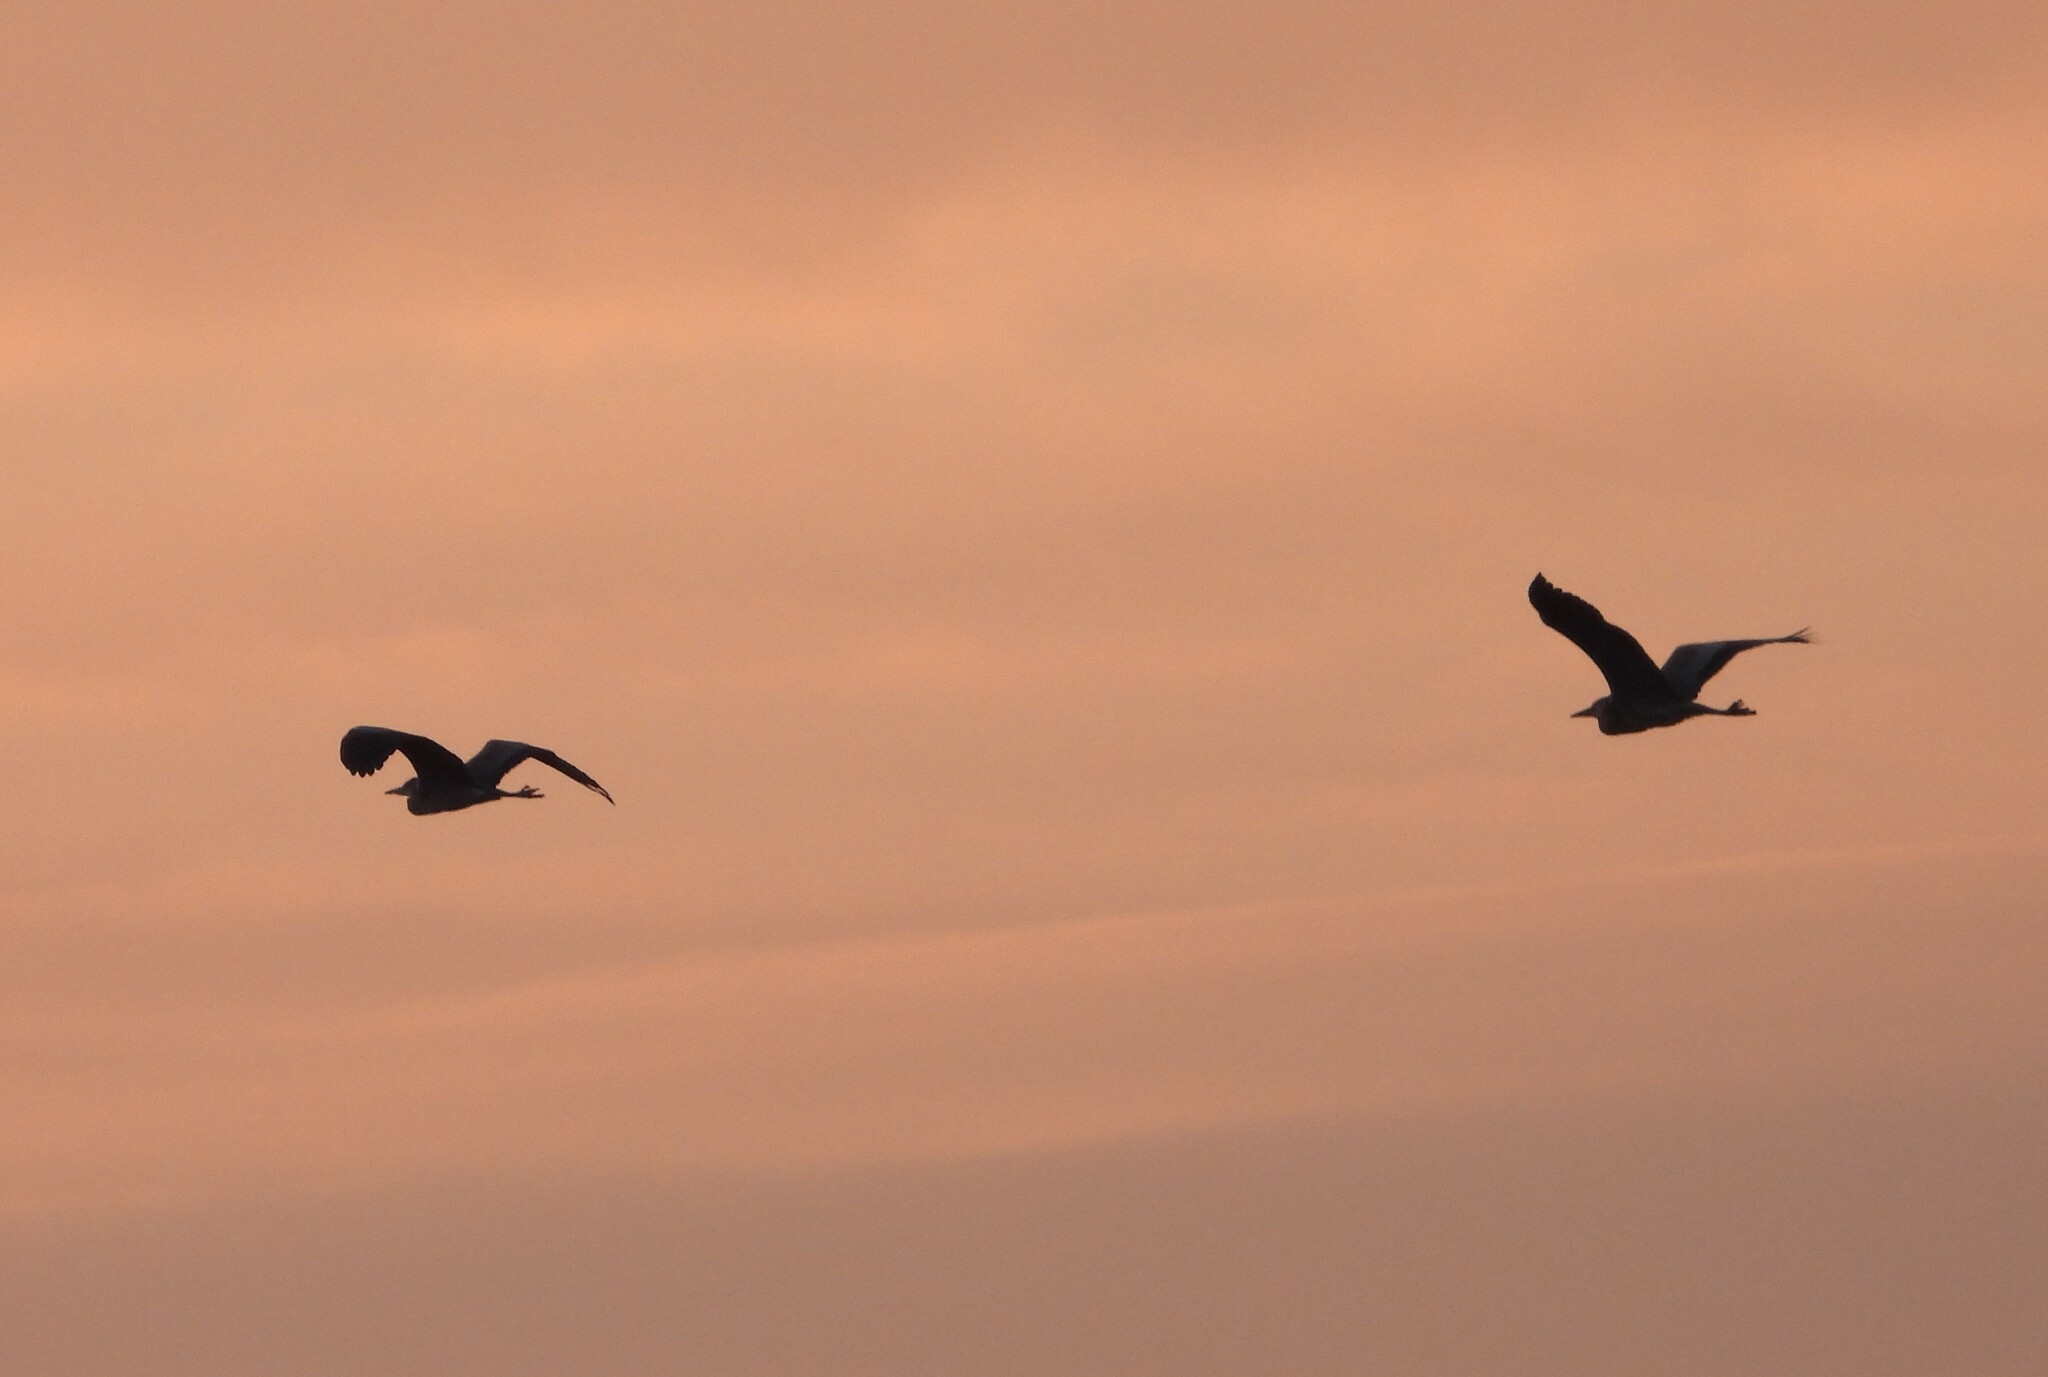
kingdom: Animalia
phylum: Chordata
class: Aves
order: Pelecaniformes
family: Ardeidae
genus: Ardea
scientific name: Ardea cinerea
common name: Grey heron
